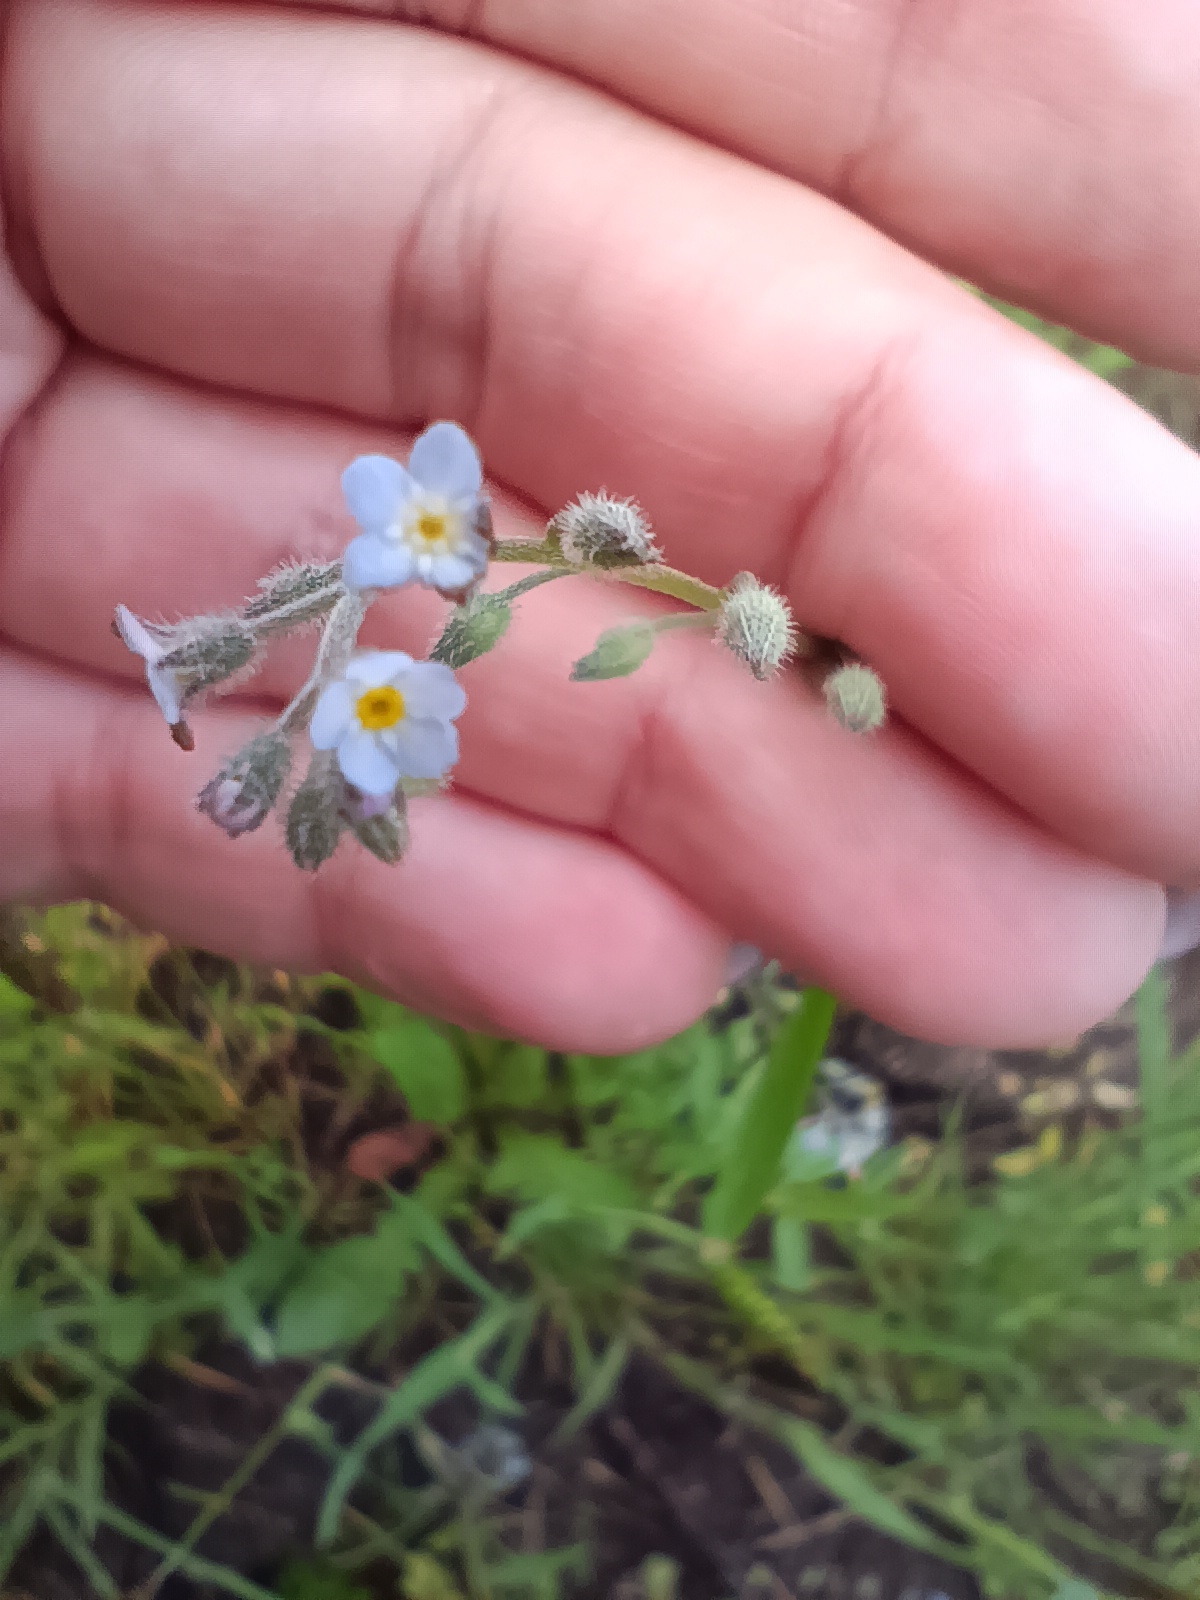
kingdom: Plantae
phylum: Tracheophyta
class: Magnoliopsida
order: Boraginales
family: Boraginaceae
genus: Myosotis
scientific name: Myosotis arvensis
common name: Field forget-me-not
